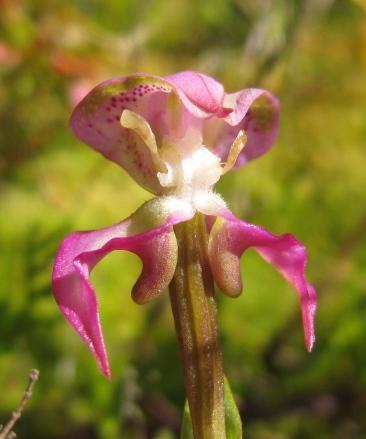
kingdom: Plantae
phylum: Tracheophyta
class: Liliopsida
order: Asparagales
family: Orchidaceae
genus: Disperis
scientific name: Disperis paludosa
